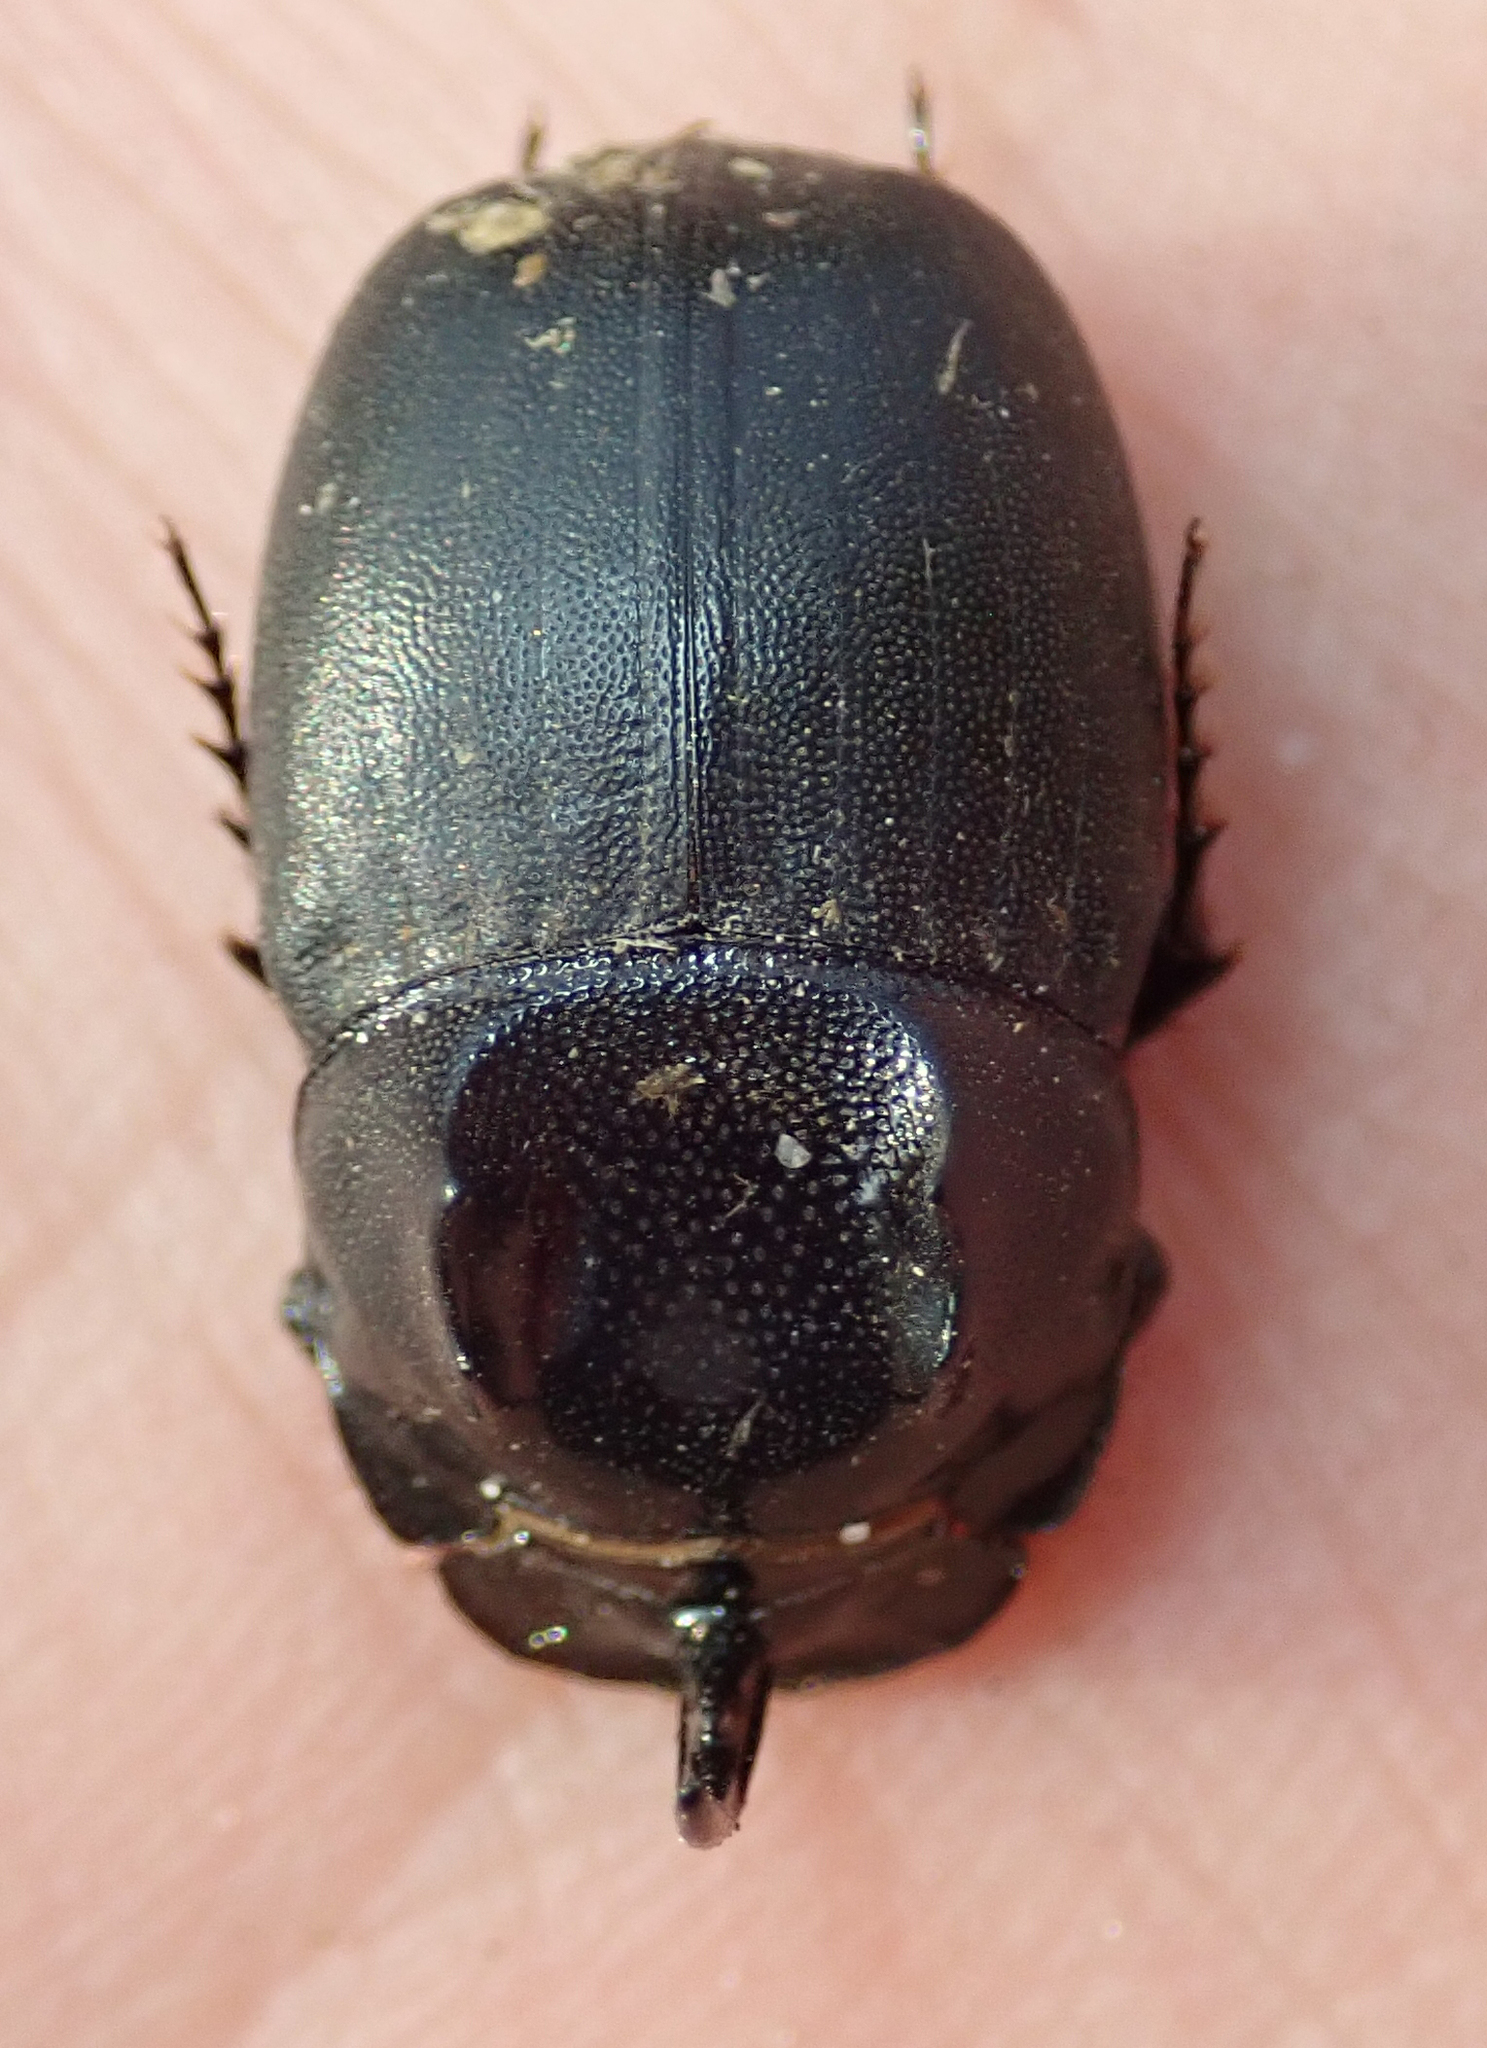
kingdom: Animalia
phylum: Arthropoda
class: Insecta
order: Coleoptera
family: Scarabaeidae
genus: Copris
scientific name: Copris mesacanthus
